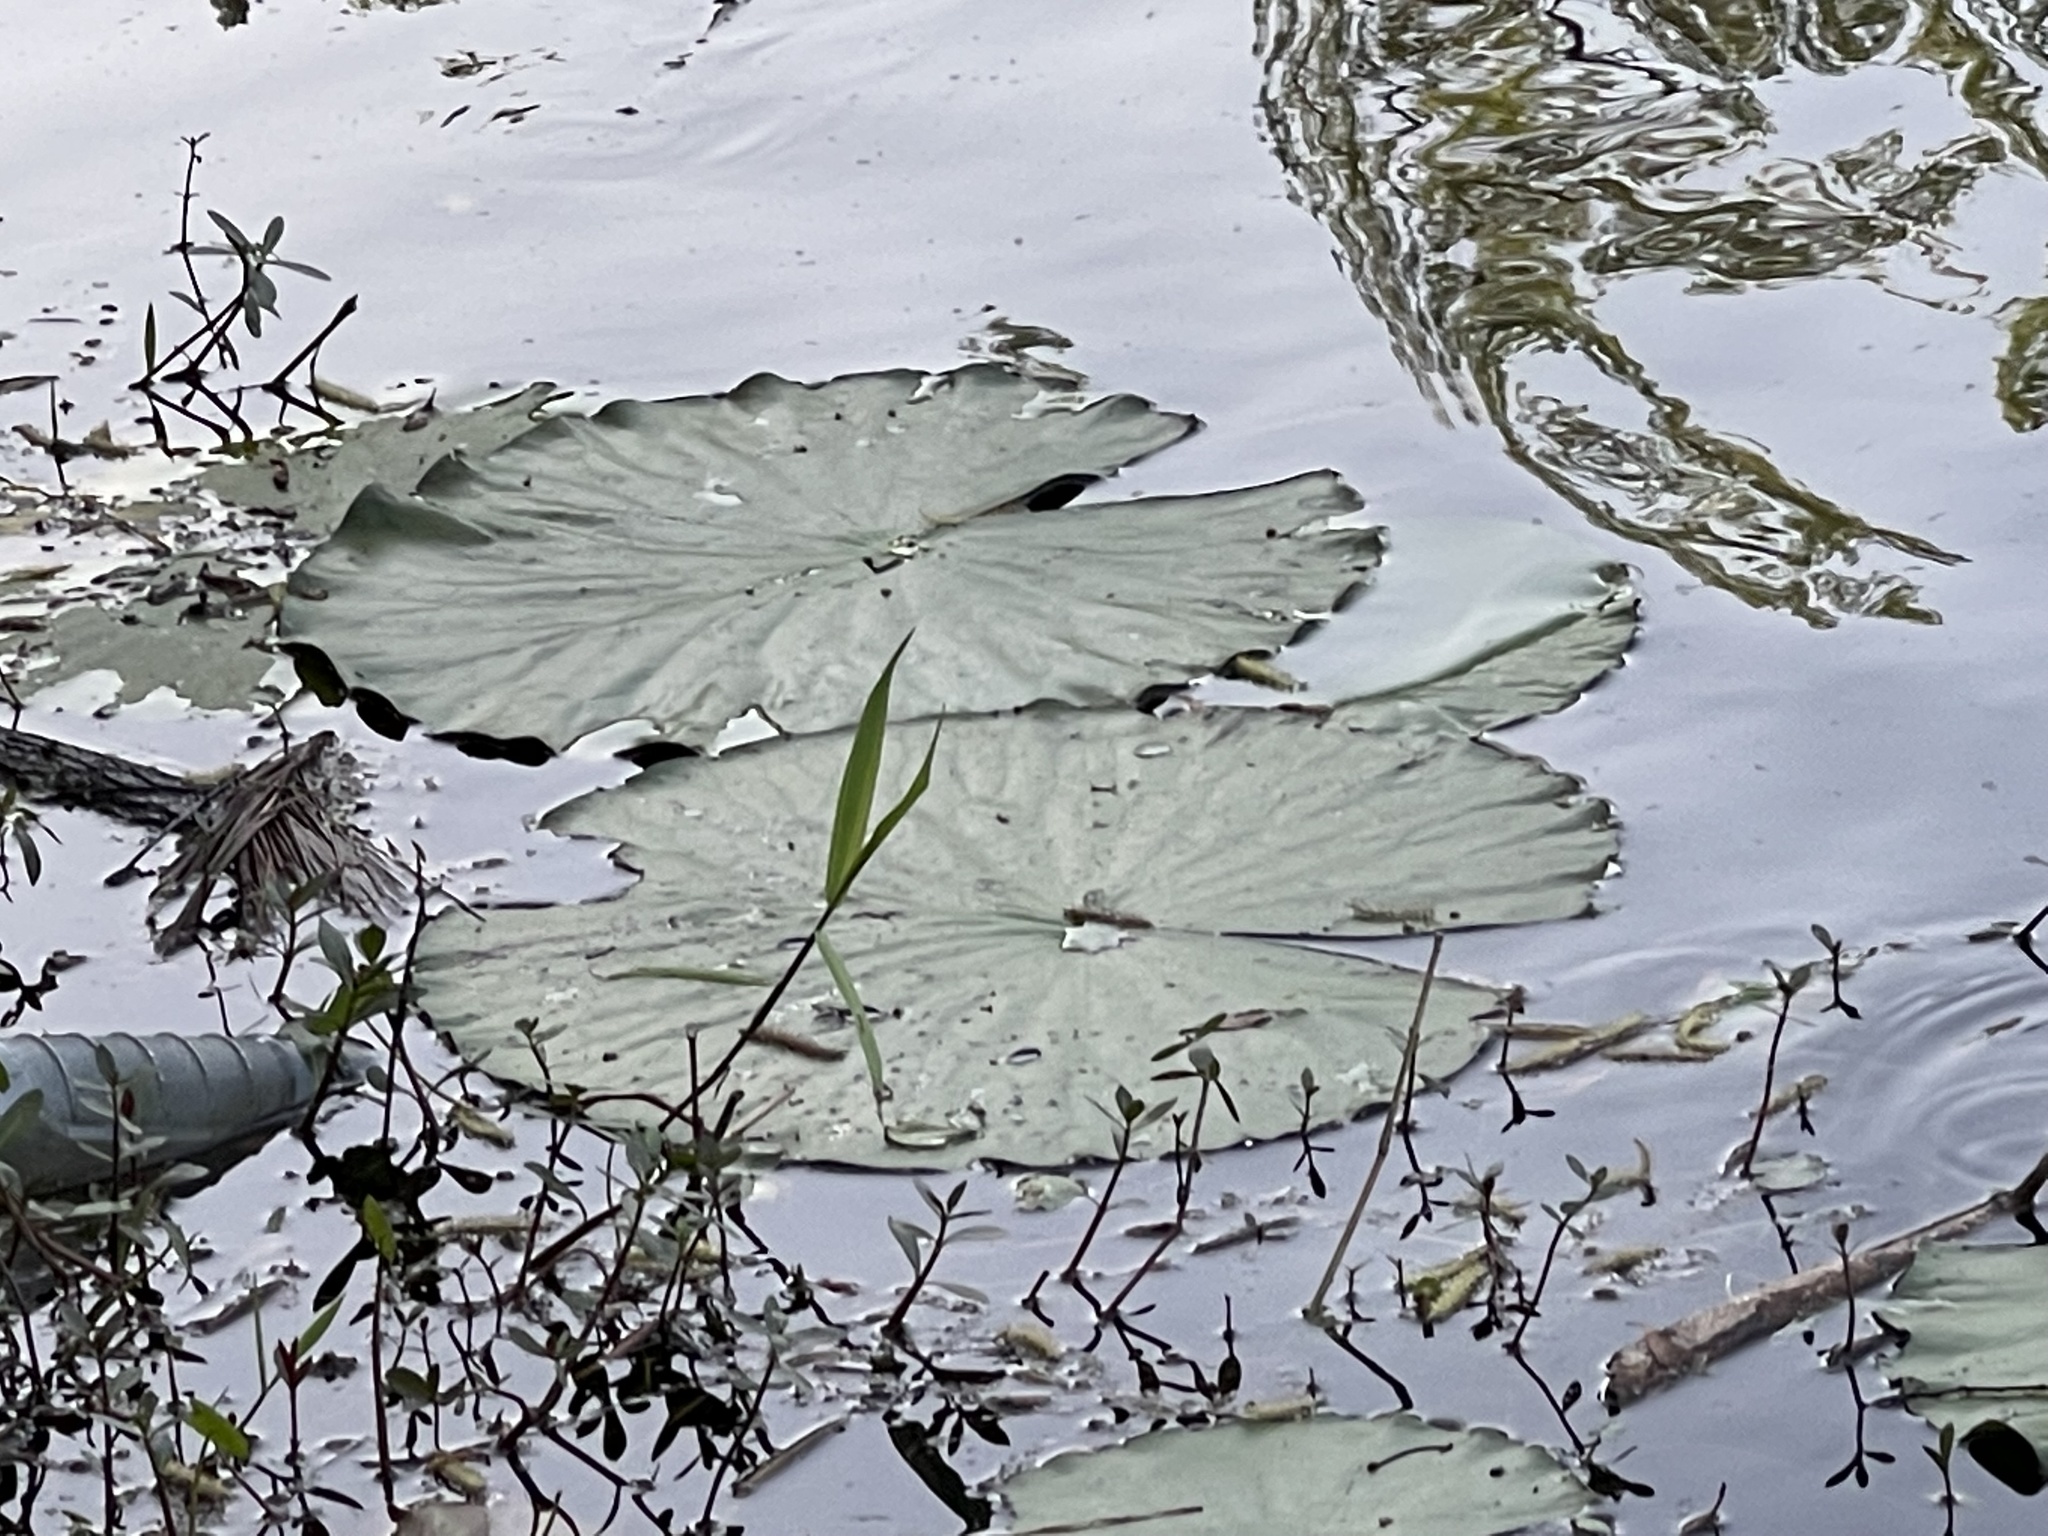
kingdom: Plantae
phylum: Tracheophyta
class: Magnoliopsida
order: Proteales
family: Nelumbonaceae
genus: Nelumbo
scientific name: Nelumbo lutea
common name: American lotus
